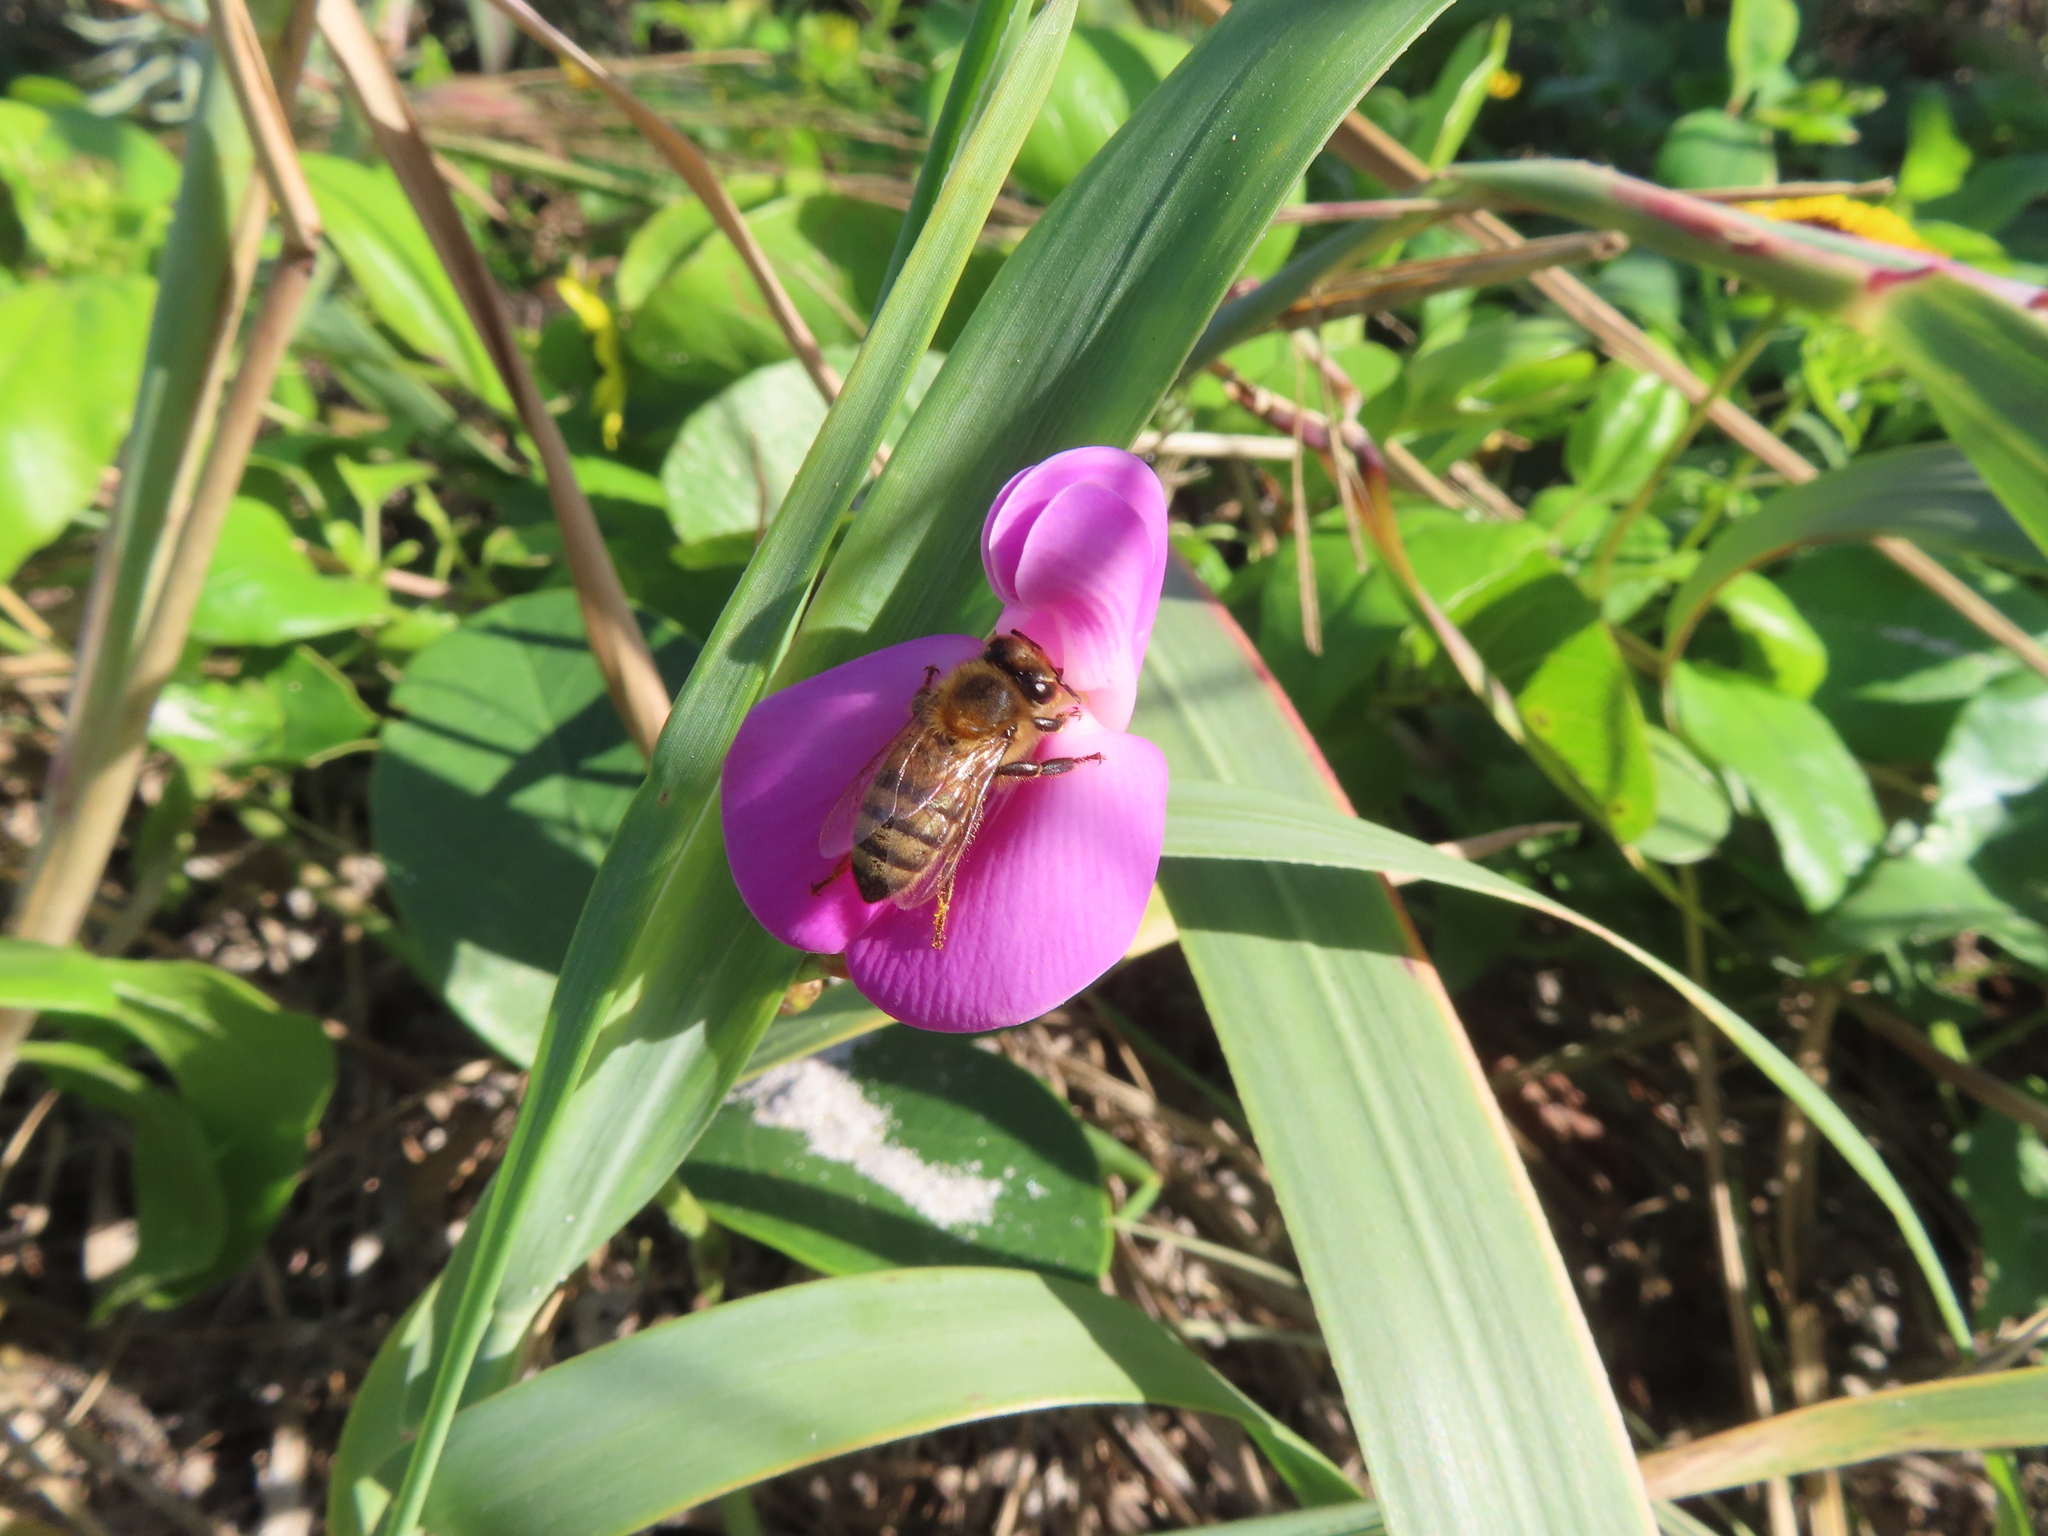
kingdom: Plantae
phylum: Tracheophyta
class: Magnoliopsida
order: Fabales
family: Fabaceae
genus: Canavalia
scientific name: Canavalia rosea
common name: Beach-bean
